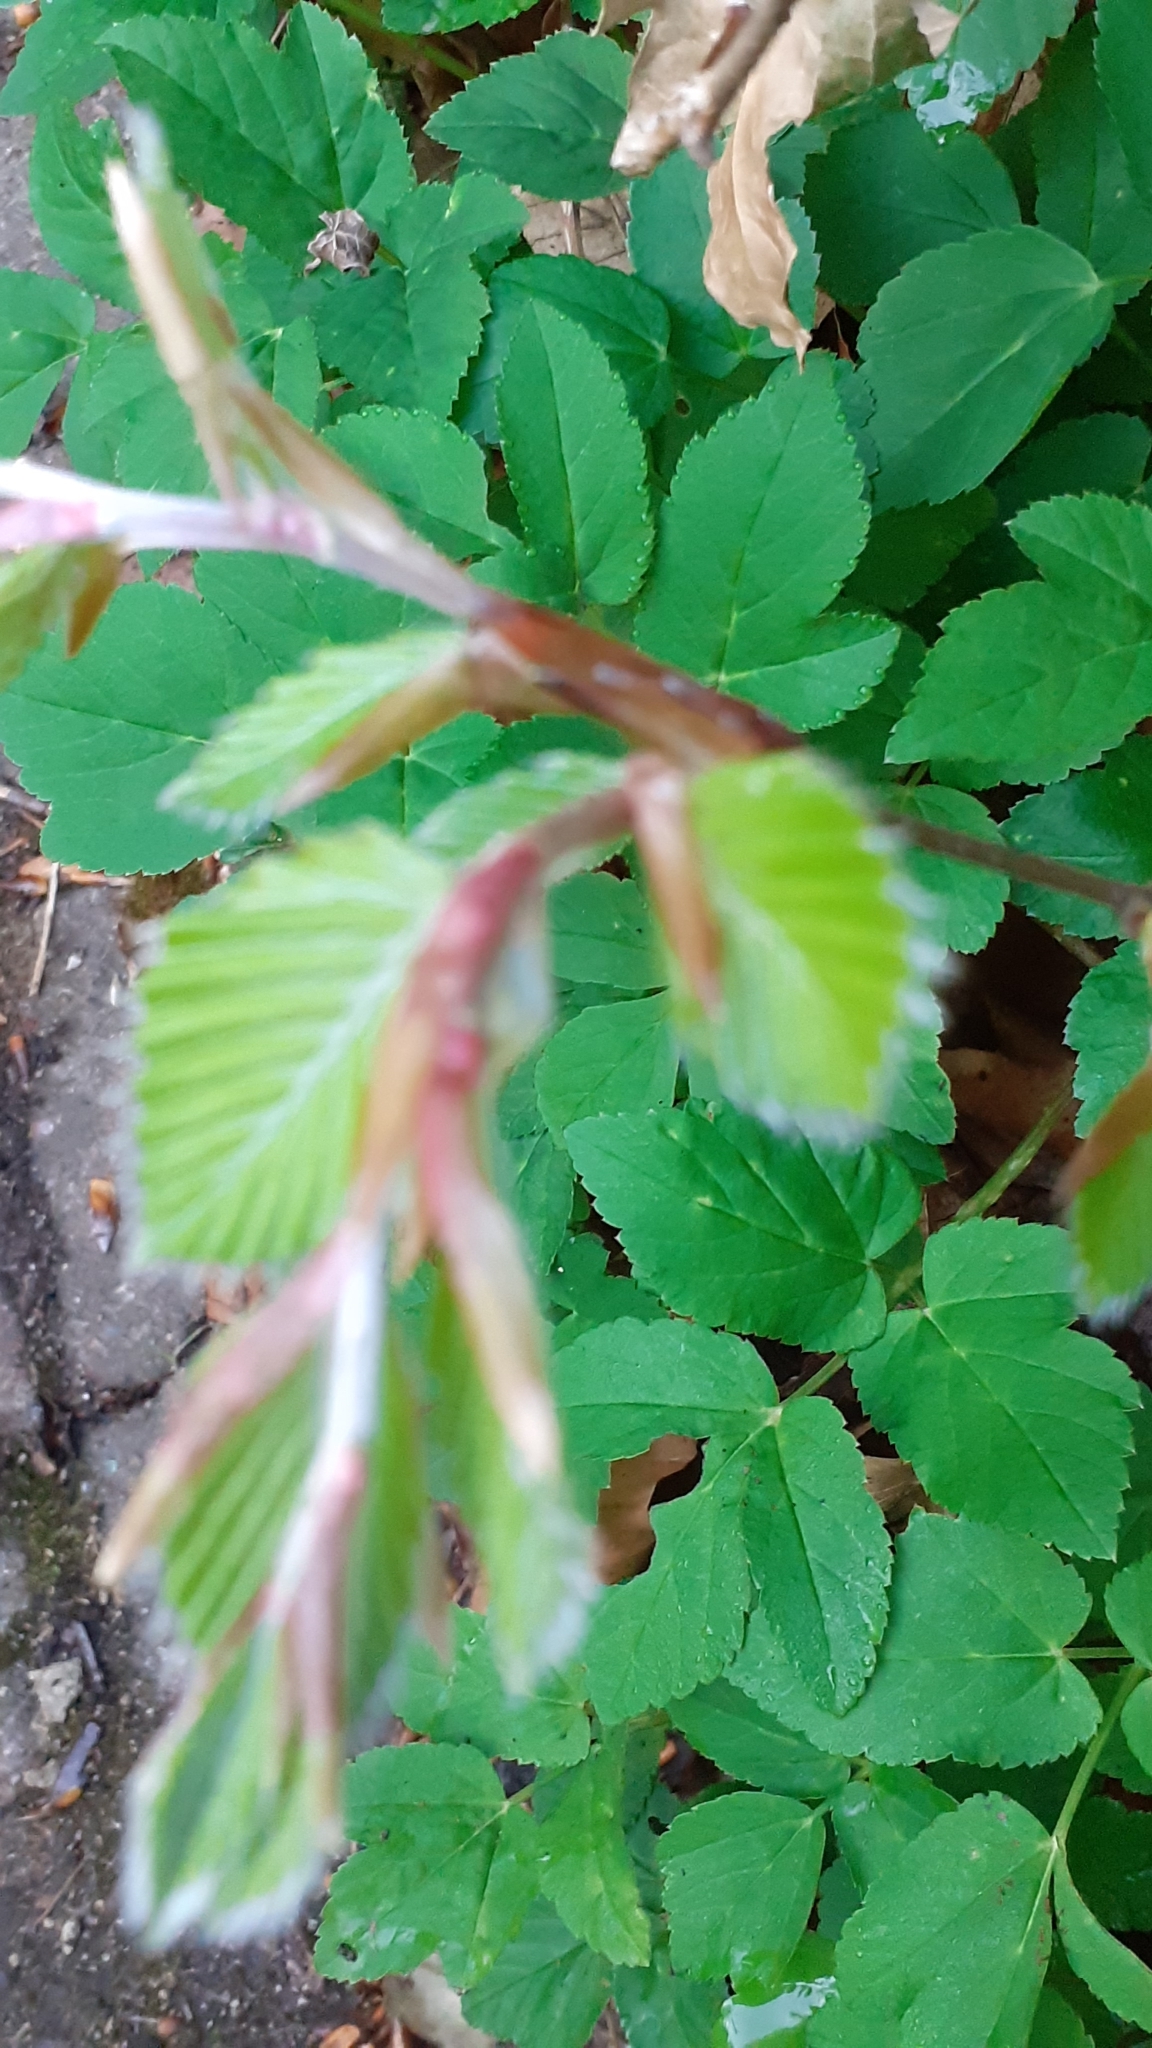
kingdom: Plantae
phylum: Tracheophyta
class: Magnoliopsida
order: Fagales
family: Fagaceae
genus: Fagus
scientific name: Fagus sylvatica
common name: Beech
